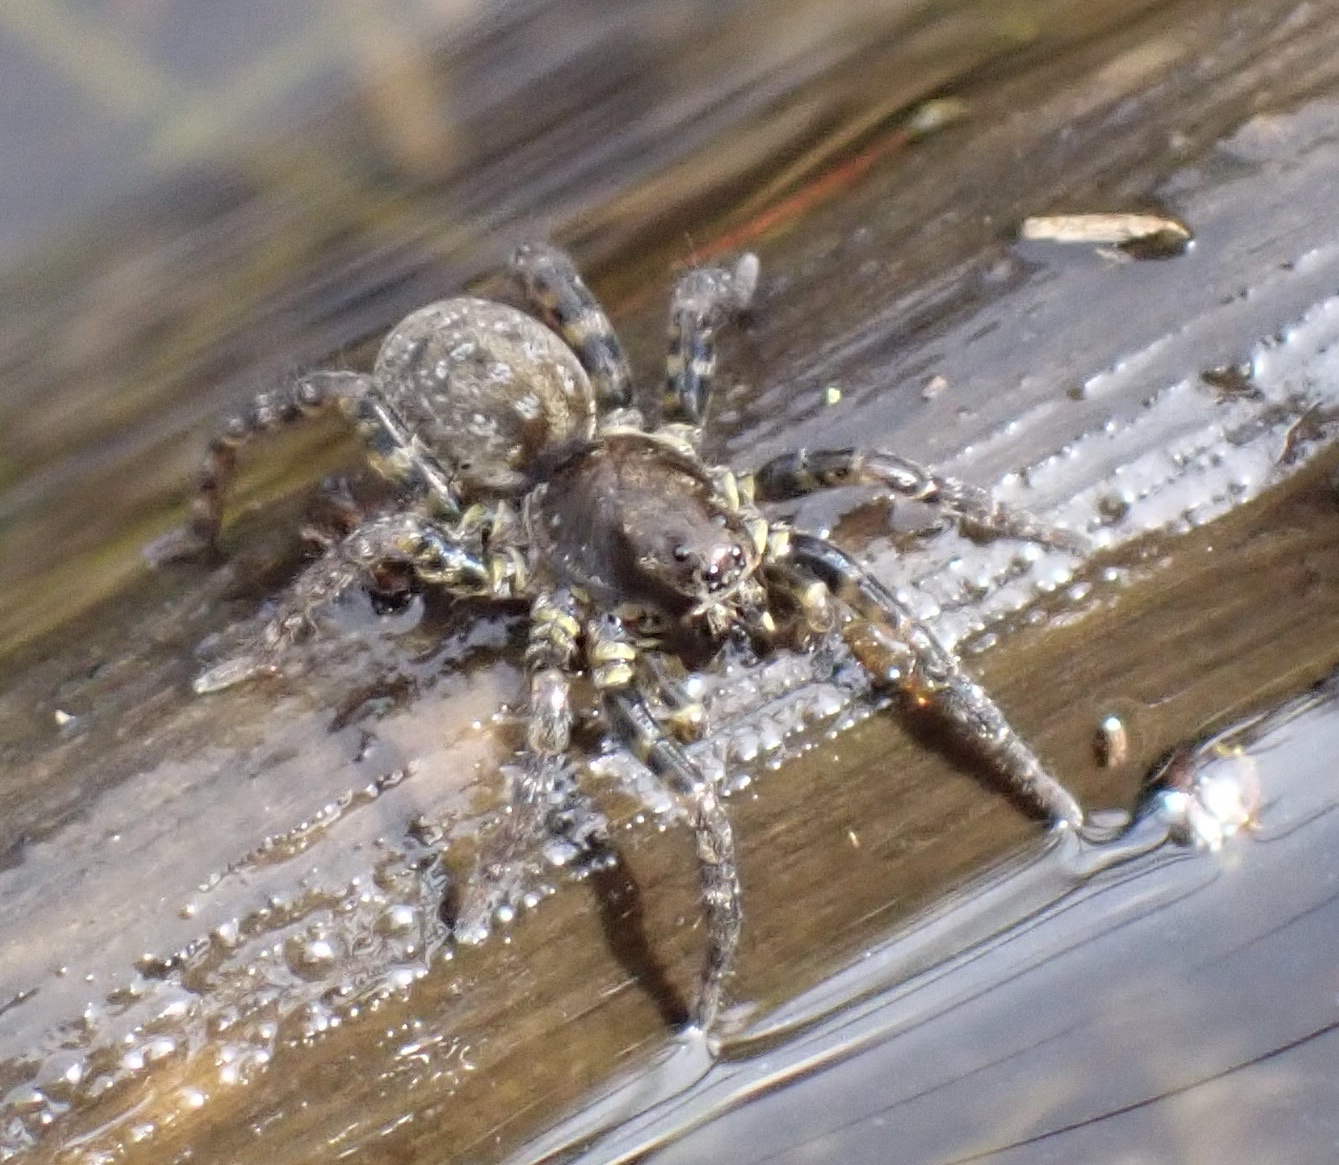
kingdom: Animalia
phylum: Arthropoda
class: Arachnida
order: Araneae
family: Lycosidae
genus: Arctosa
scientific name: Arctosa leopardus
